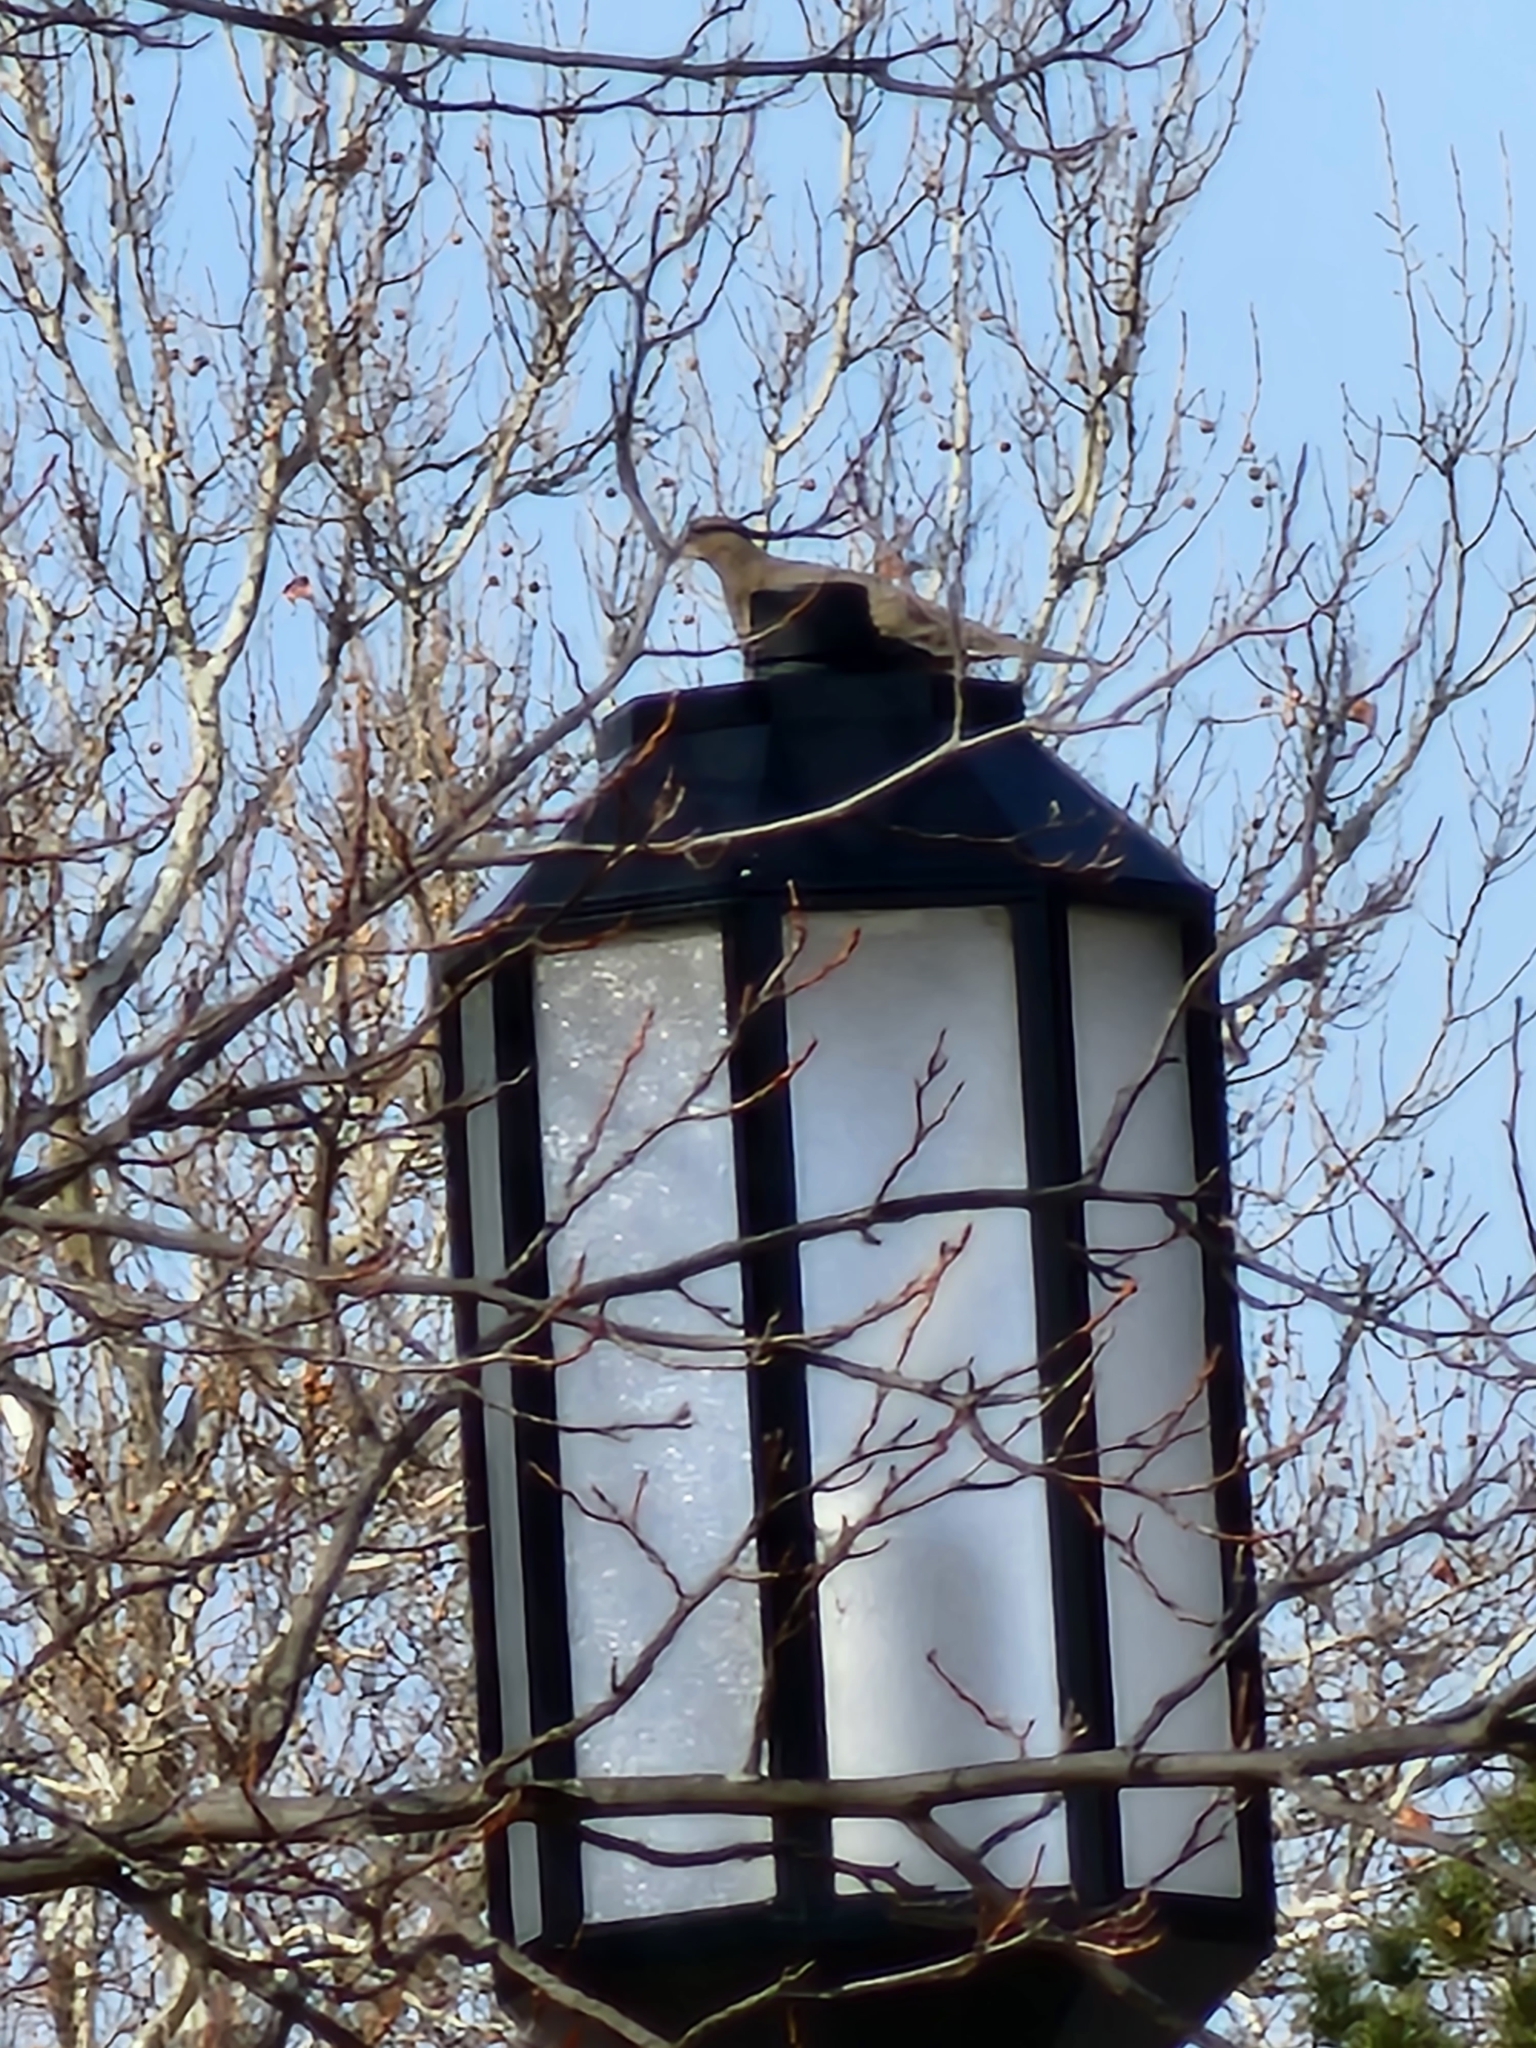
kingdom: Animalia
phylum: Chordata
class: Aves
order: Columbiformes
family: Columbidae
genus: Zenaida
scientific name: Zenaida macroura
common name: Mourning dove
